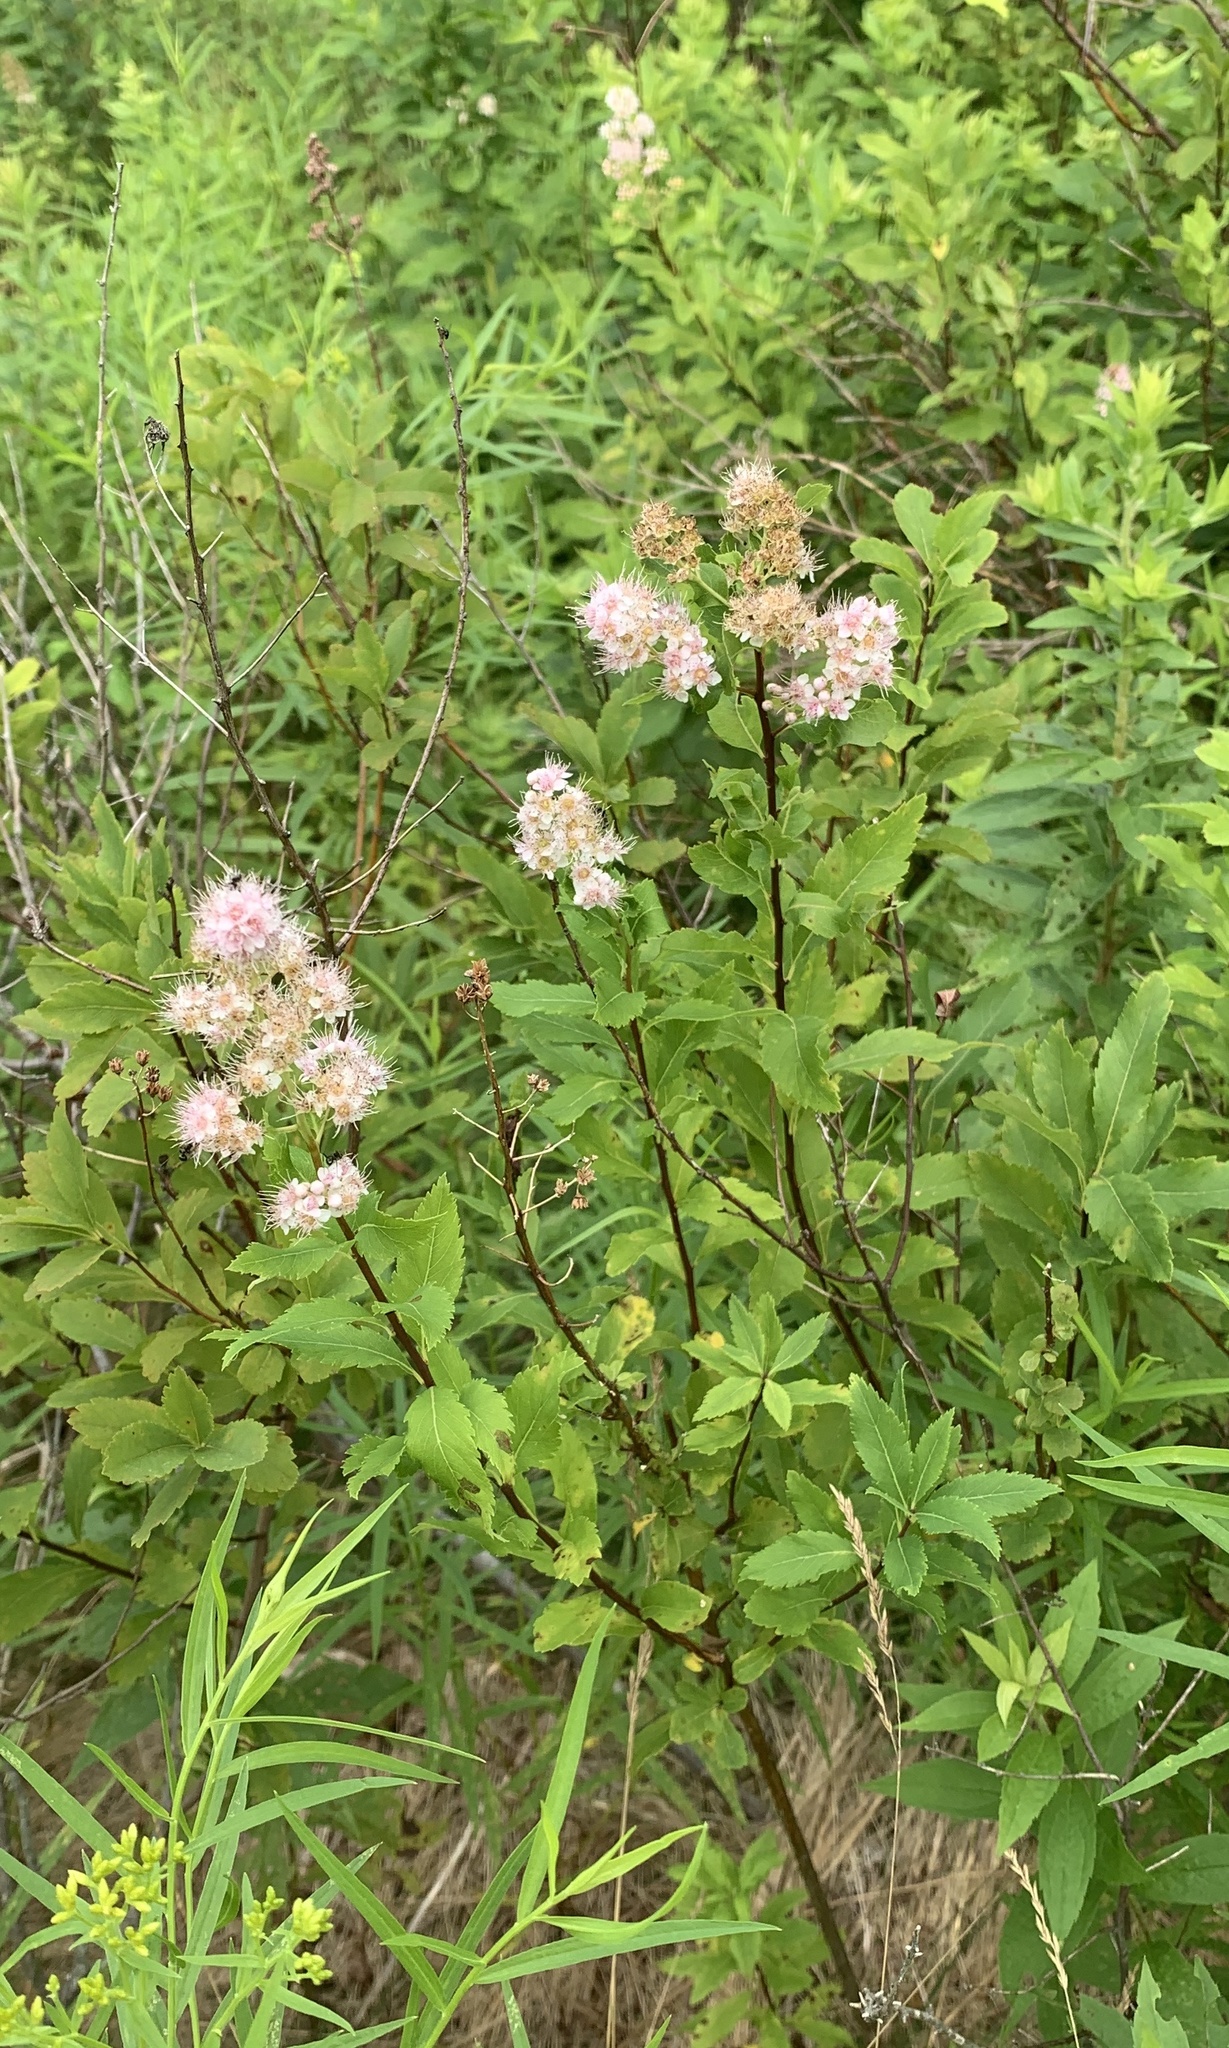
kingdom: Plantae
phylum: Tracheophyta
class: Magnoliopsida
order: Rosales
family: Rosaceae
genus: Spiraea
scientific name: Spiraea alba
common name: Pale bridewort
